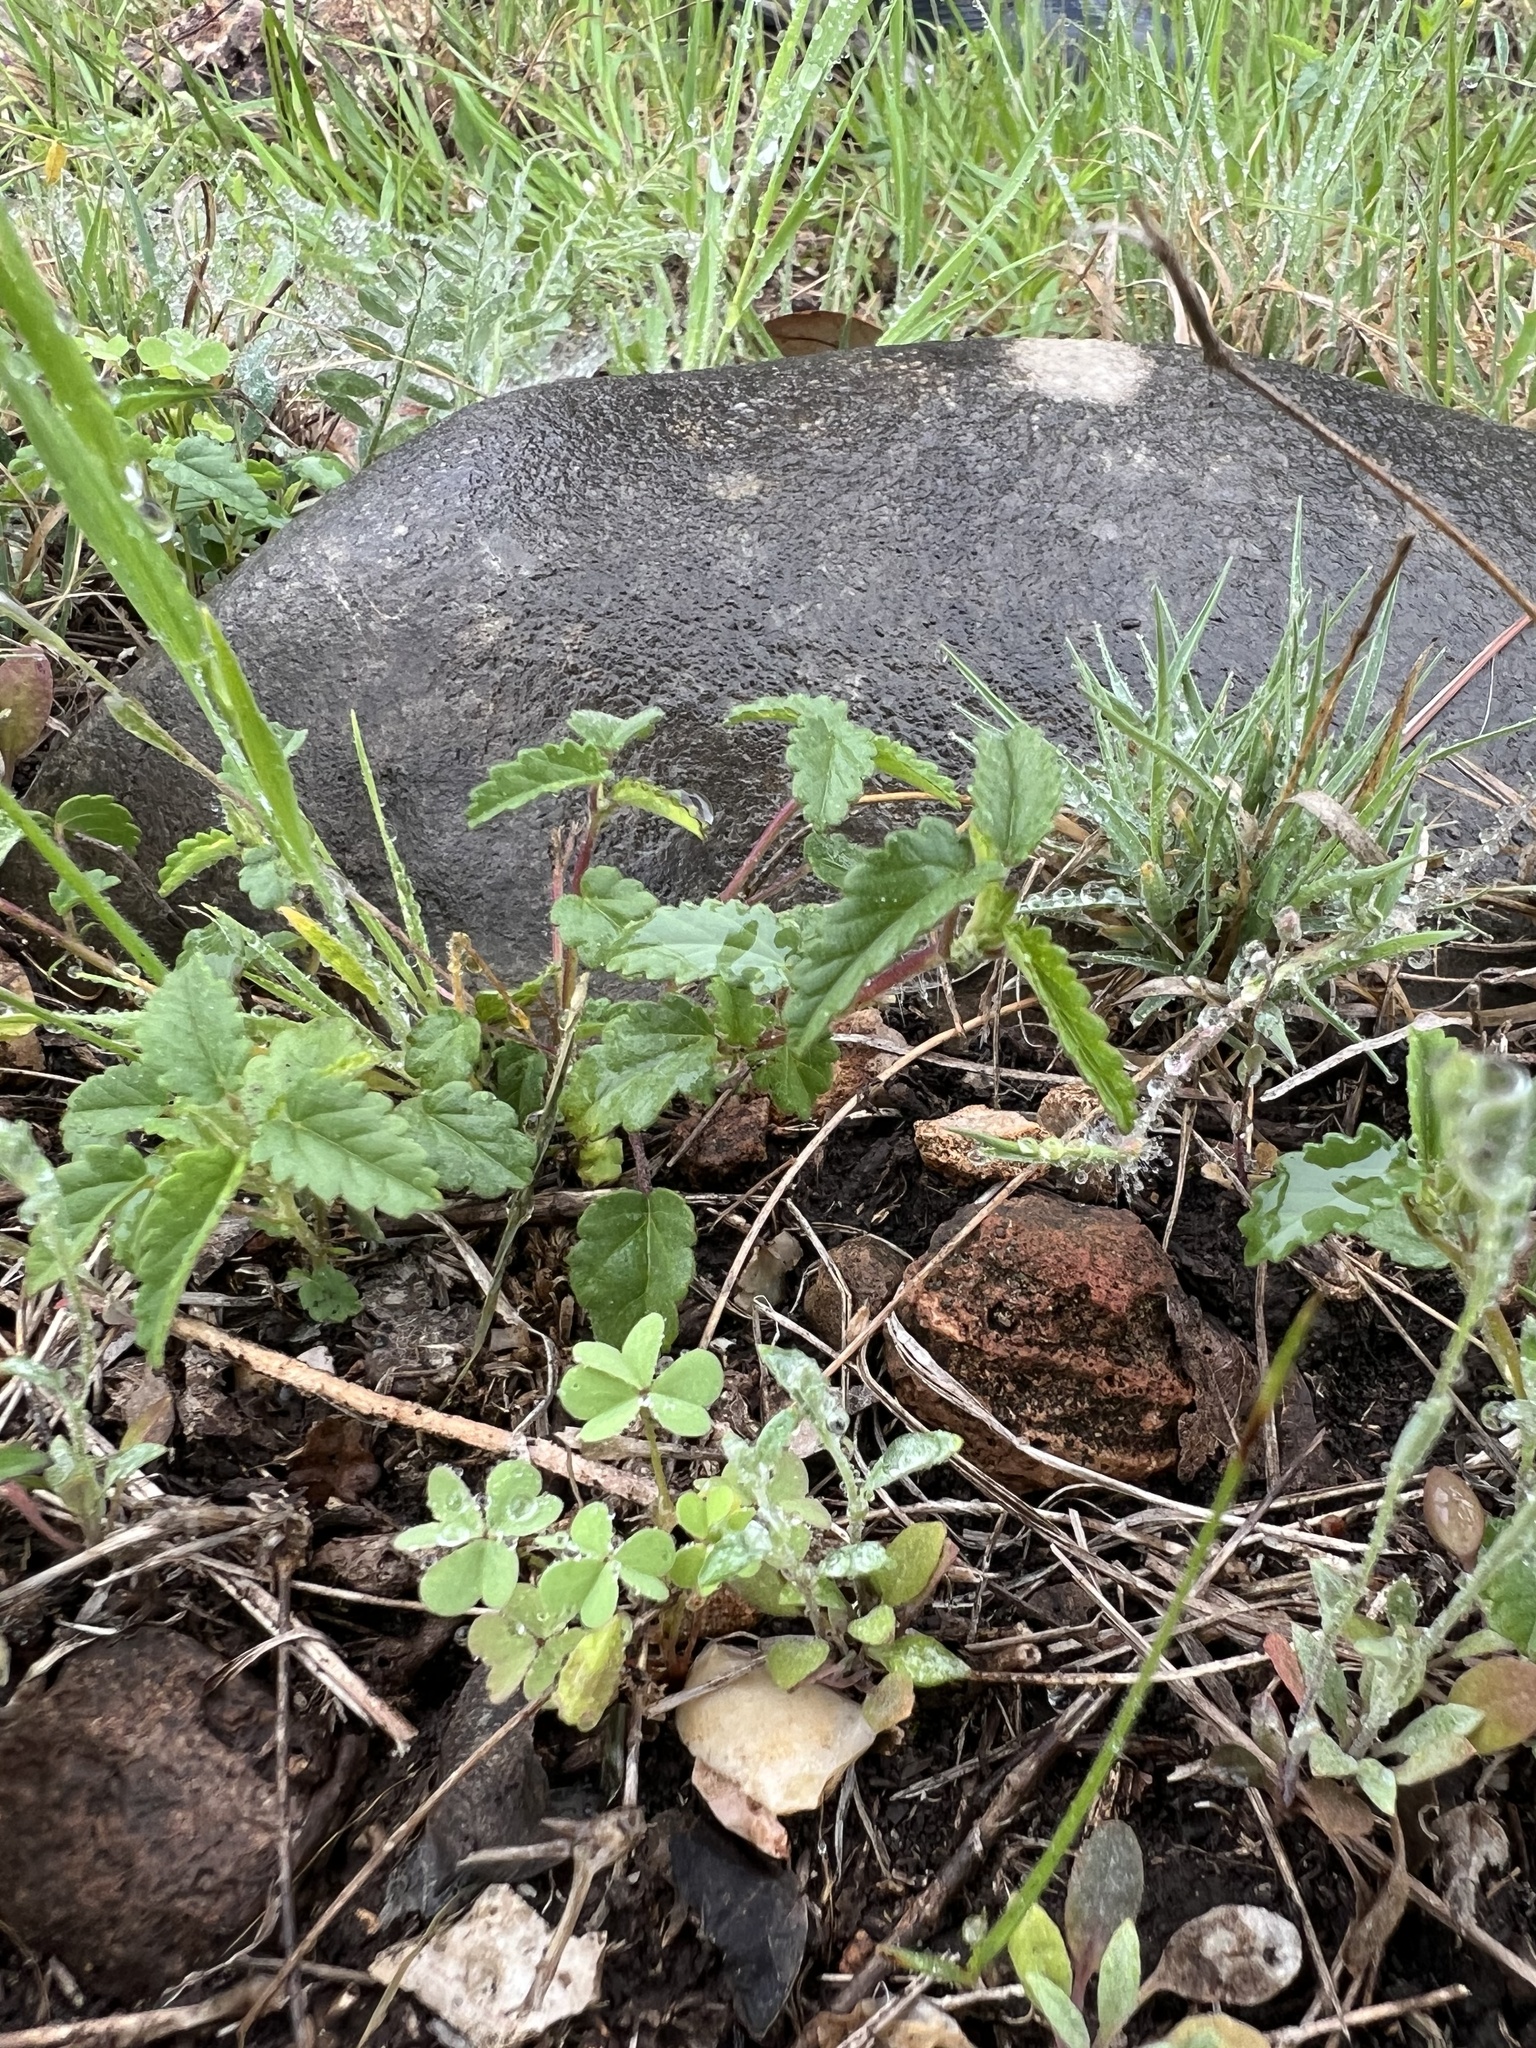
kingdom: Plantae
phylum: Tracheophyta
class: Magnoliopsida
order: Malvales
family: Malvaceae
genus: Sida
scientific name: Sida abutilifolia
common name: Spreading fanpetals
